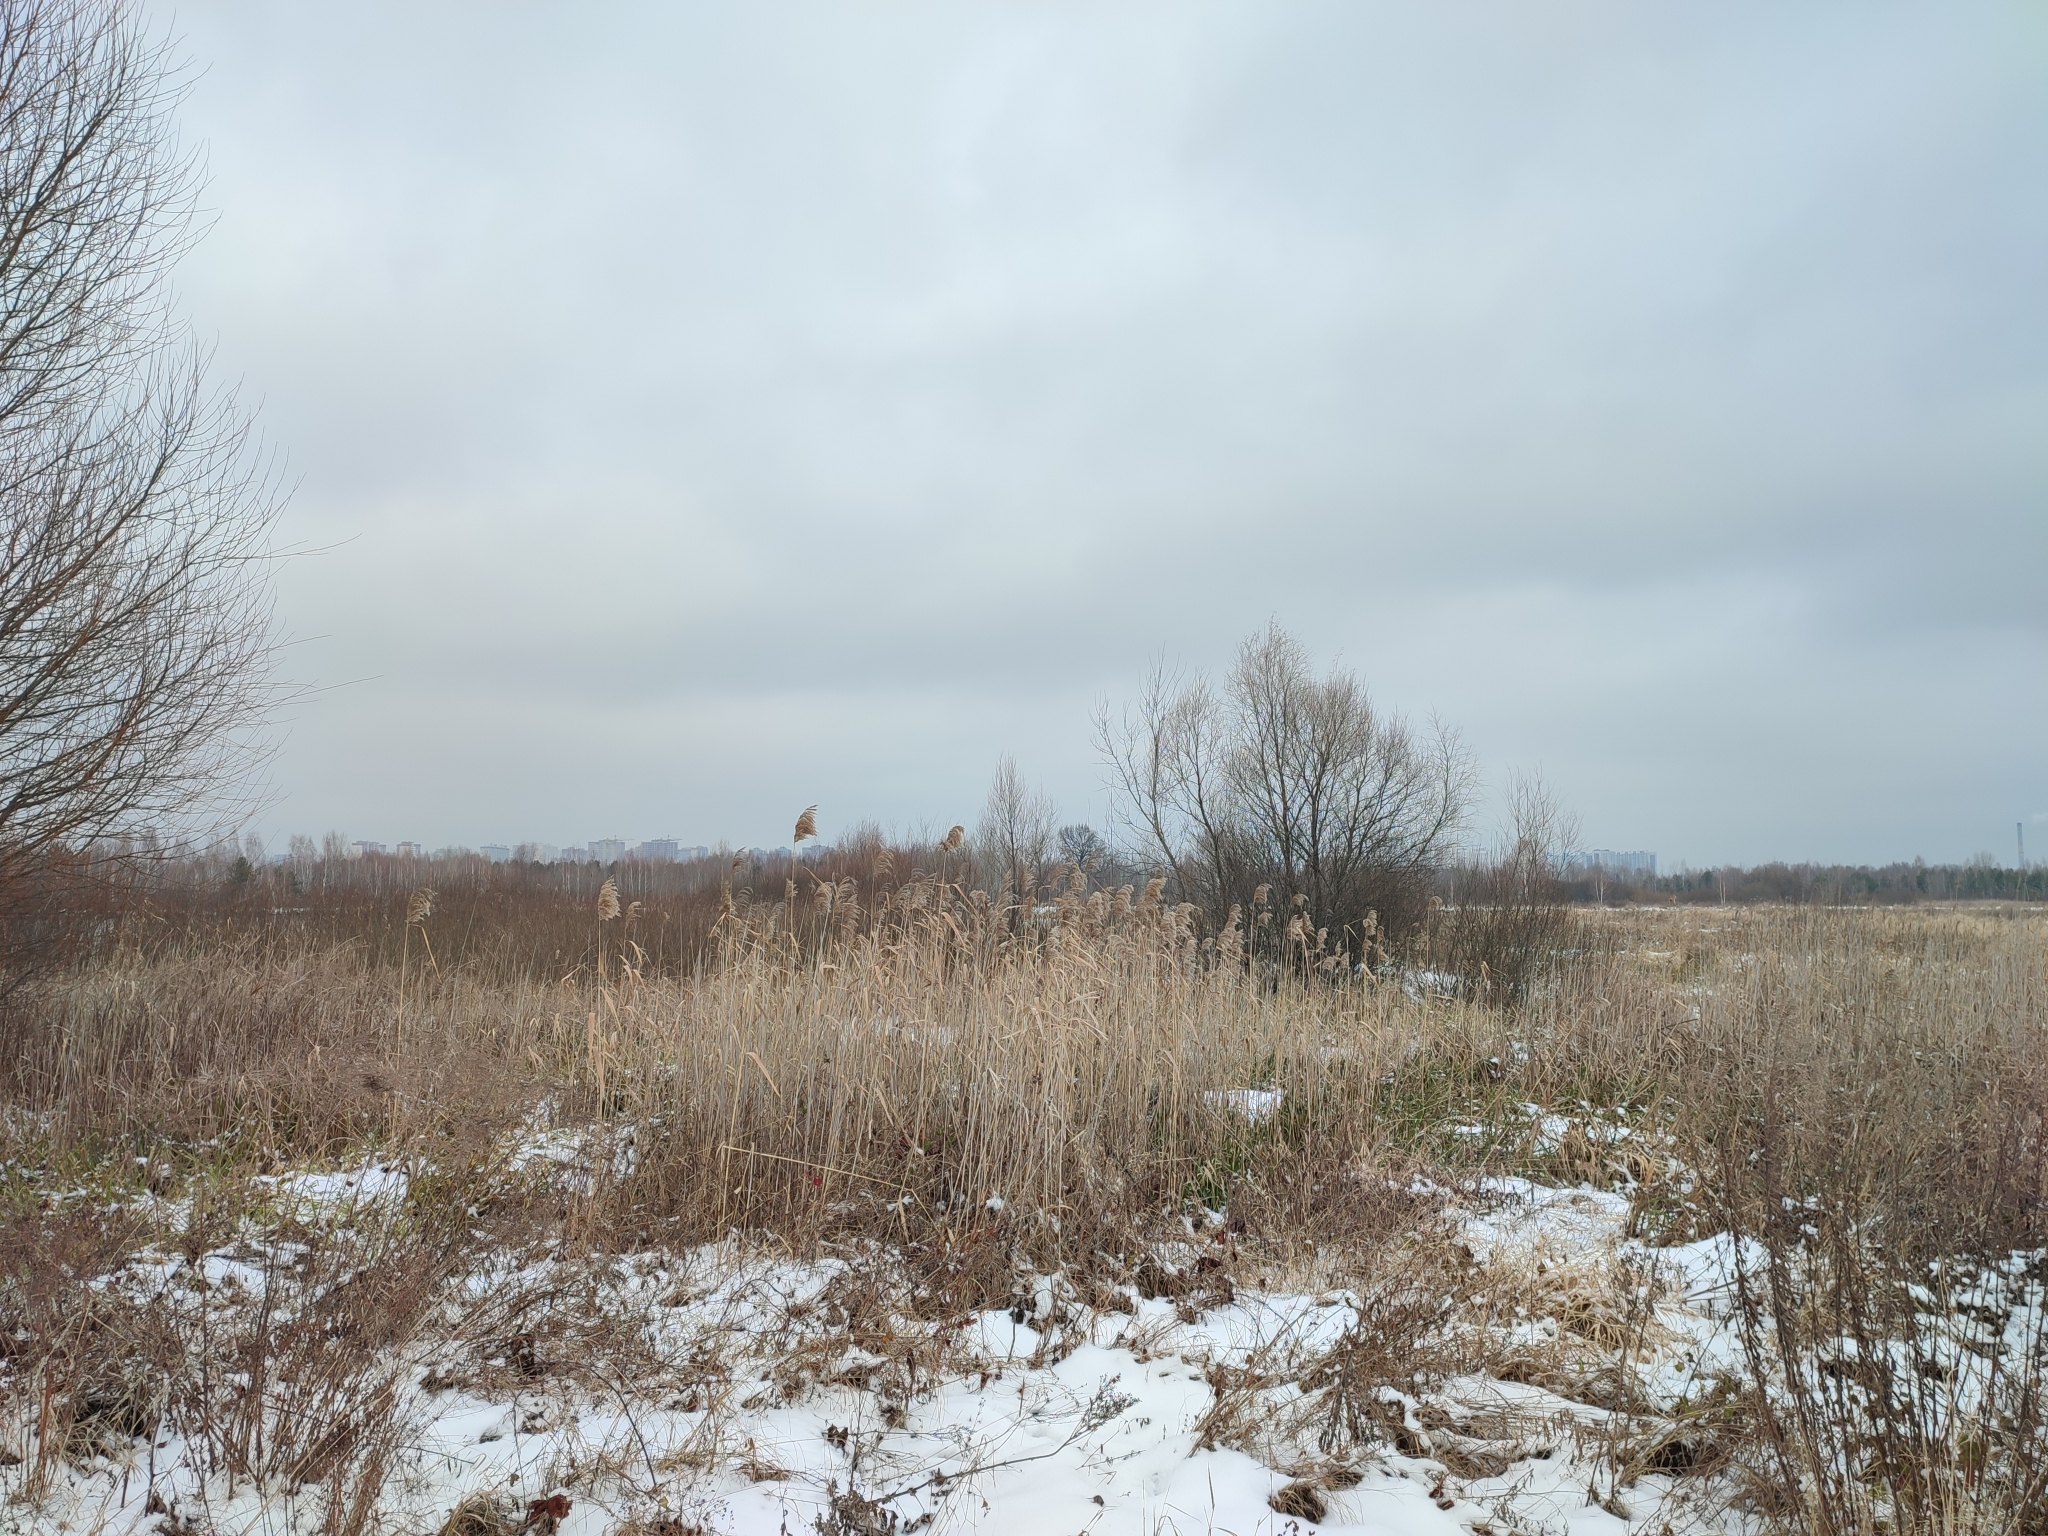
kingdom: Plantae
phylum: Tracheophyta
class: Liliopsida
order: Poales
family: Poaceae
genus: Phragmites
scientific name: Phragmites australis
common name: Common reed
